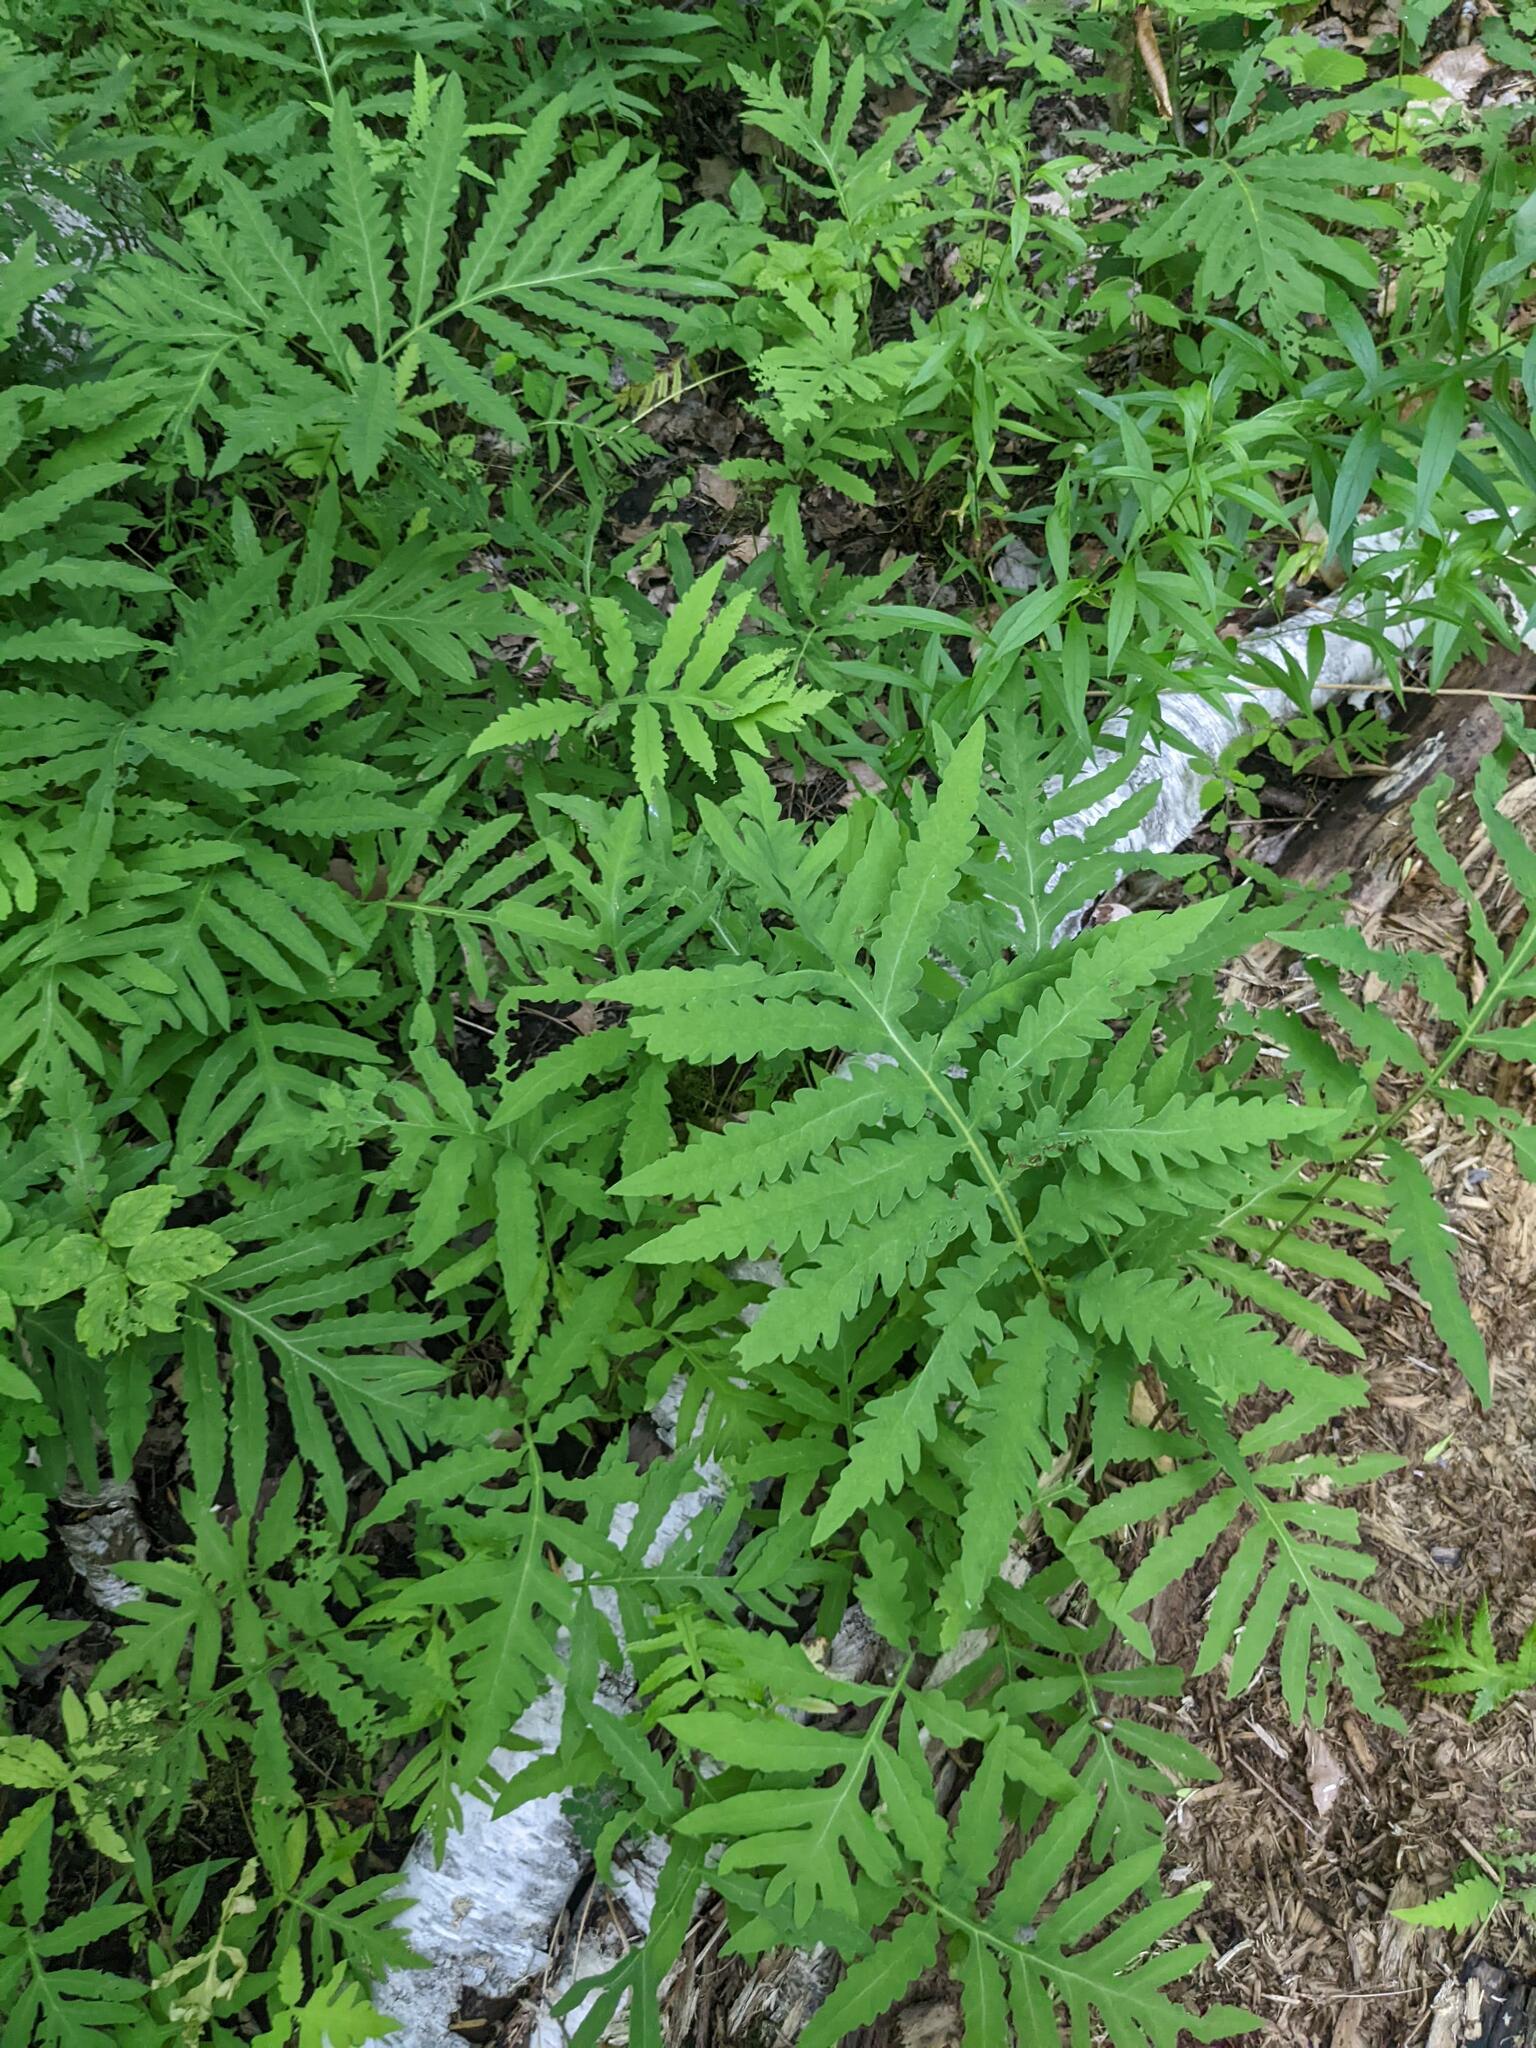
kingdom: Plantae
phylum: Tracheophyta
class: Polypodiopsida
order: Polypodiales
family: Onocleaceae
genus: Onoclea
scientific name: Onoclea sensibilis
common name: Sensitive fern
